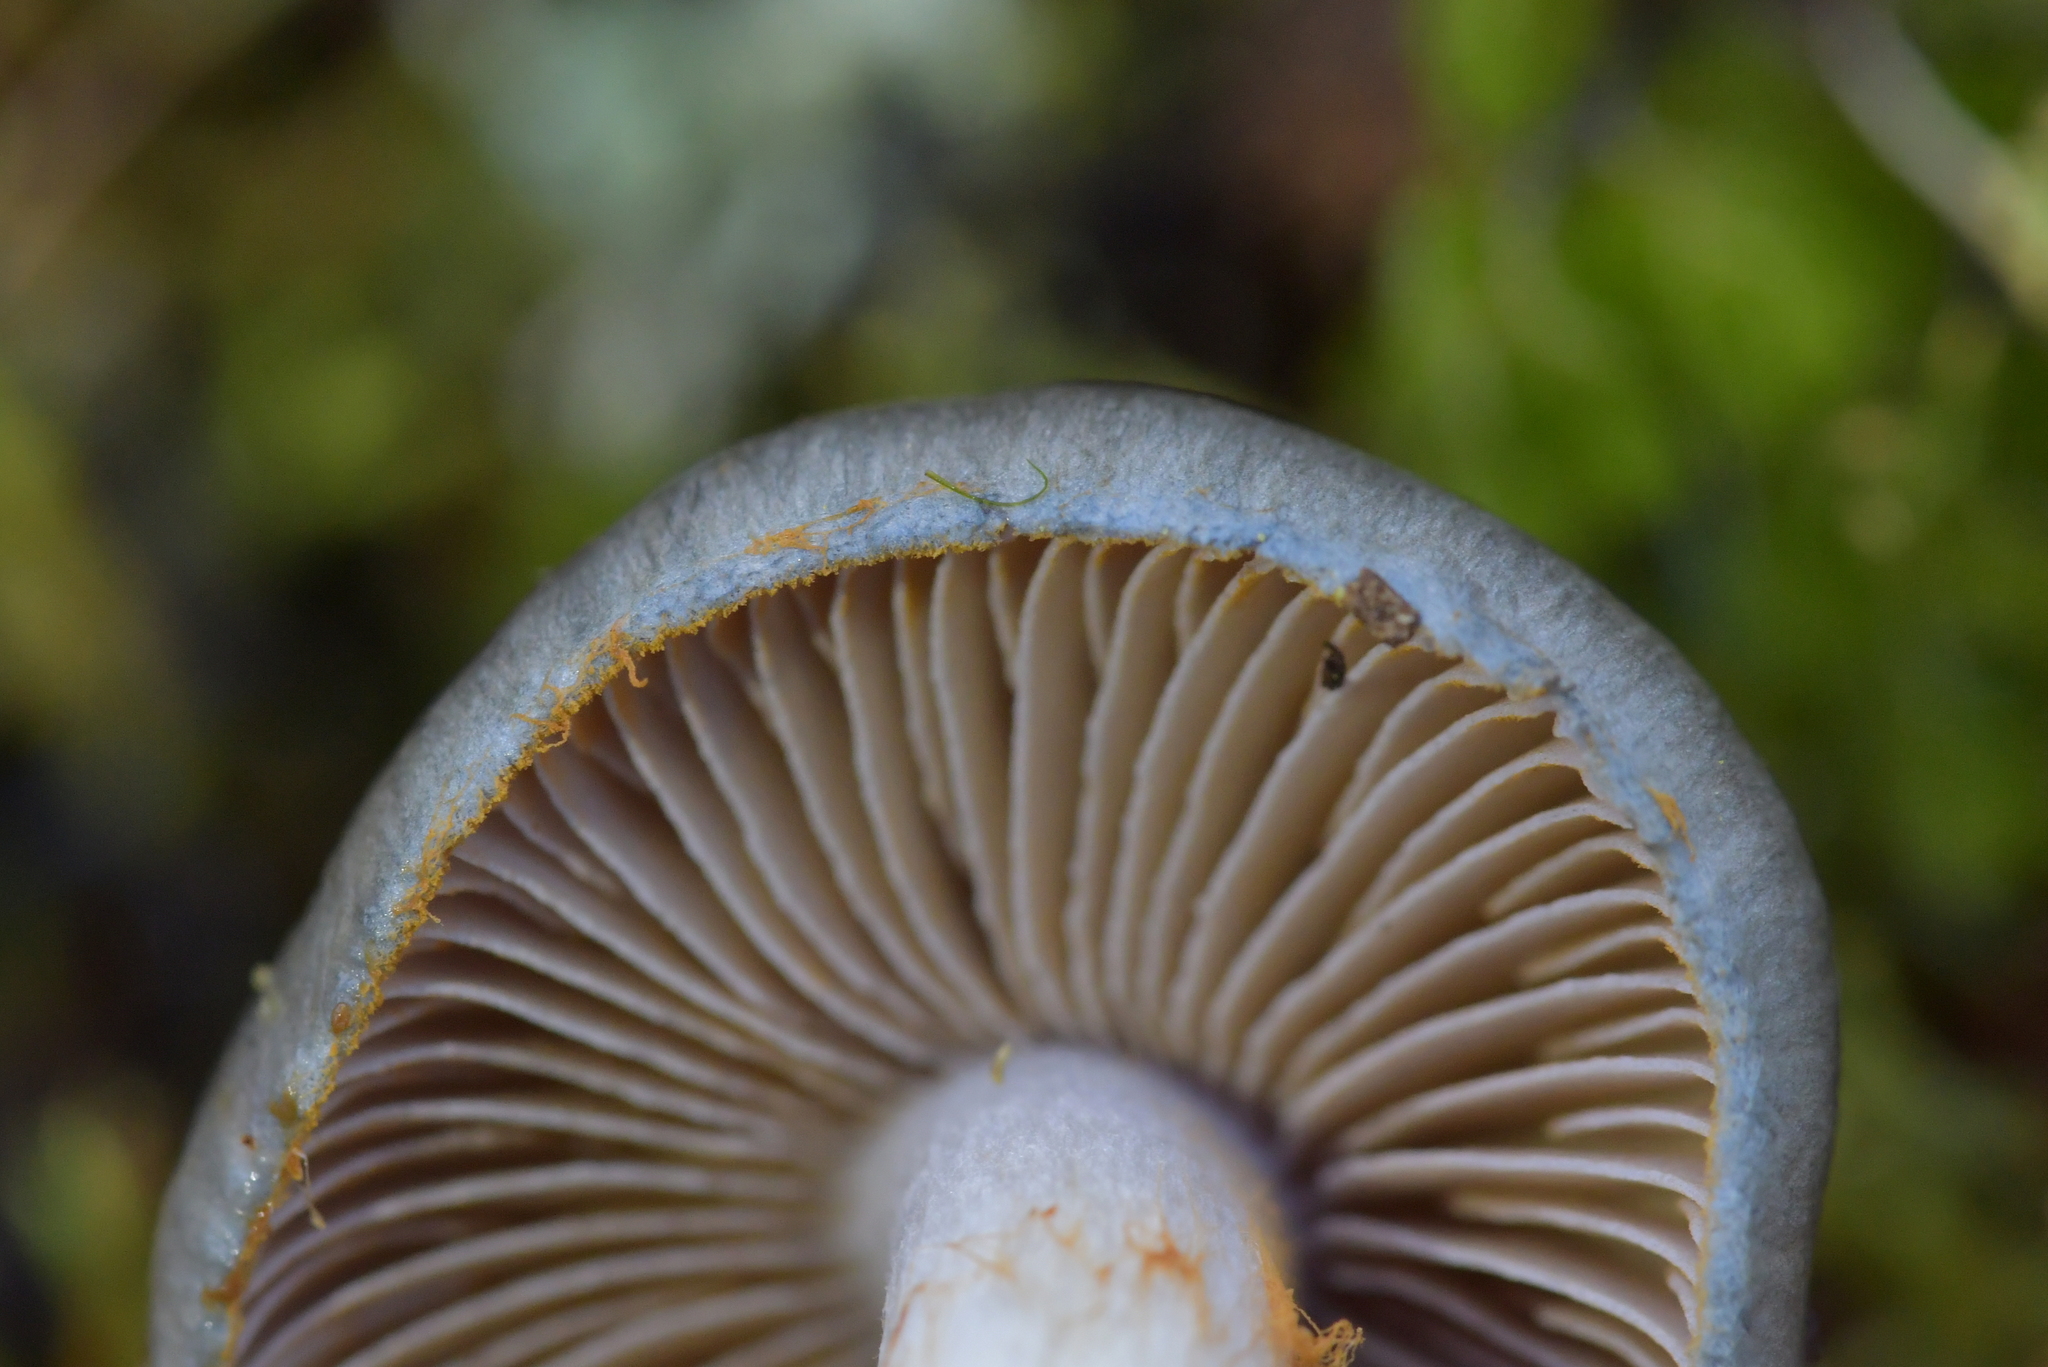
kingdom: Fungi
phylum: Basidiomycota
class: Agaricomycetes
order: Agaricales
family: Cortinariaceae
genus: Cortinarius
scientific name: Cortinarius rotundisporus
